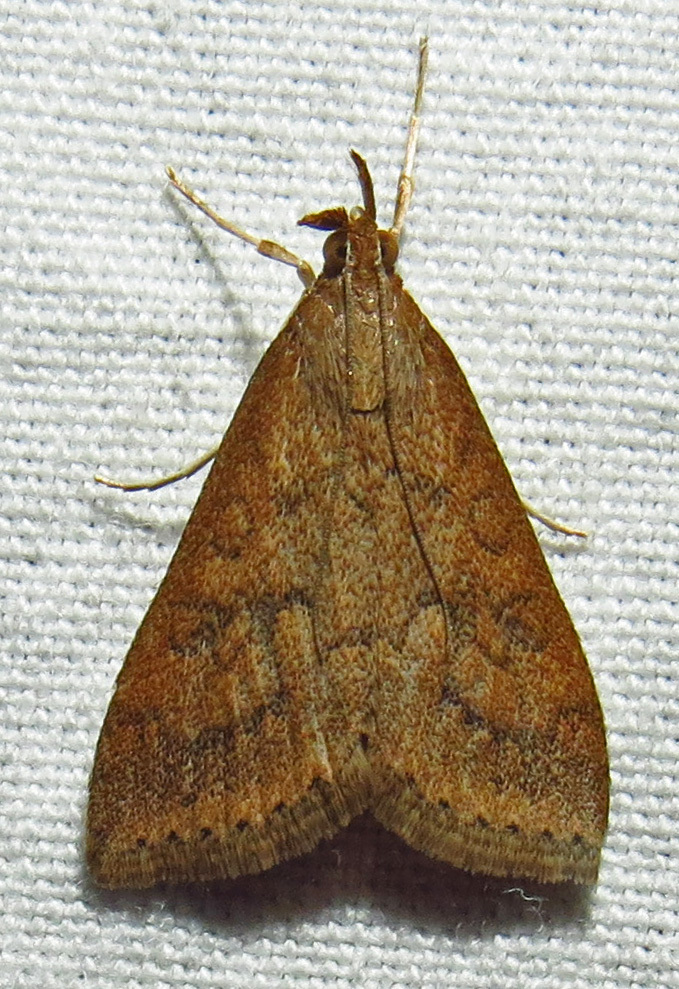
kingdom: Animalia
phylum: Arthropoda
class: Insecta
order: Lepidoptera
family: Crambidae
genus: Udea
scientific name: Udea rubigalis
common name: Celery leaftier moth
